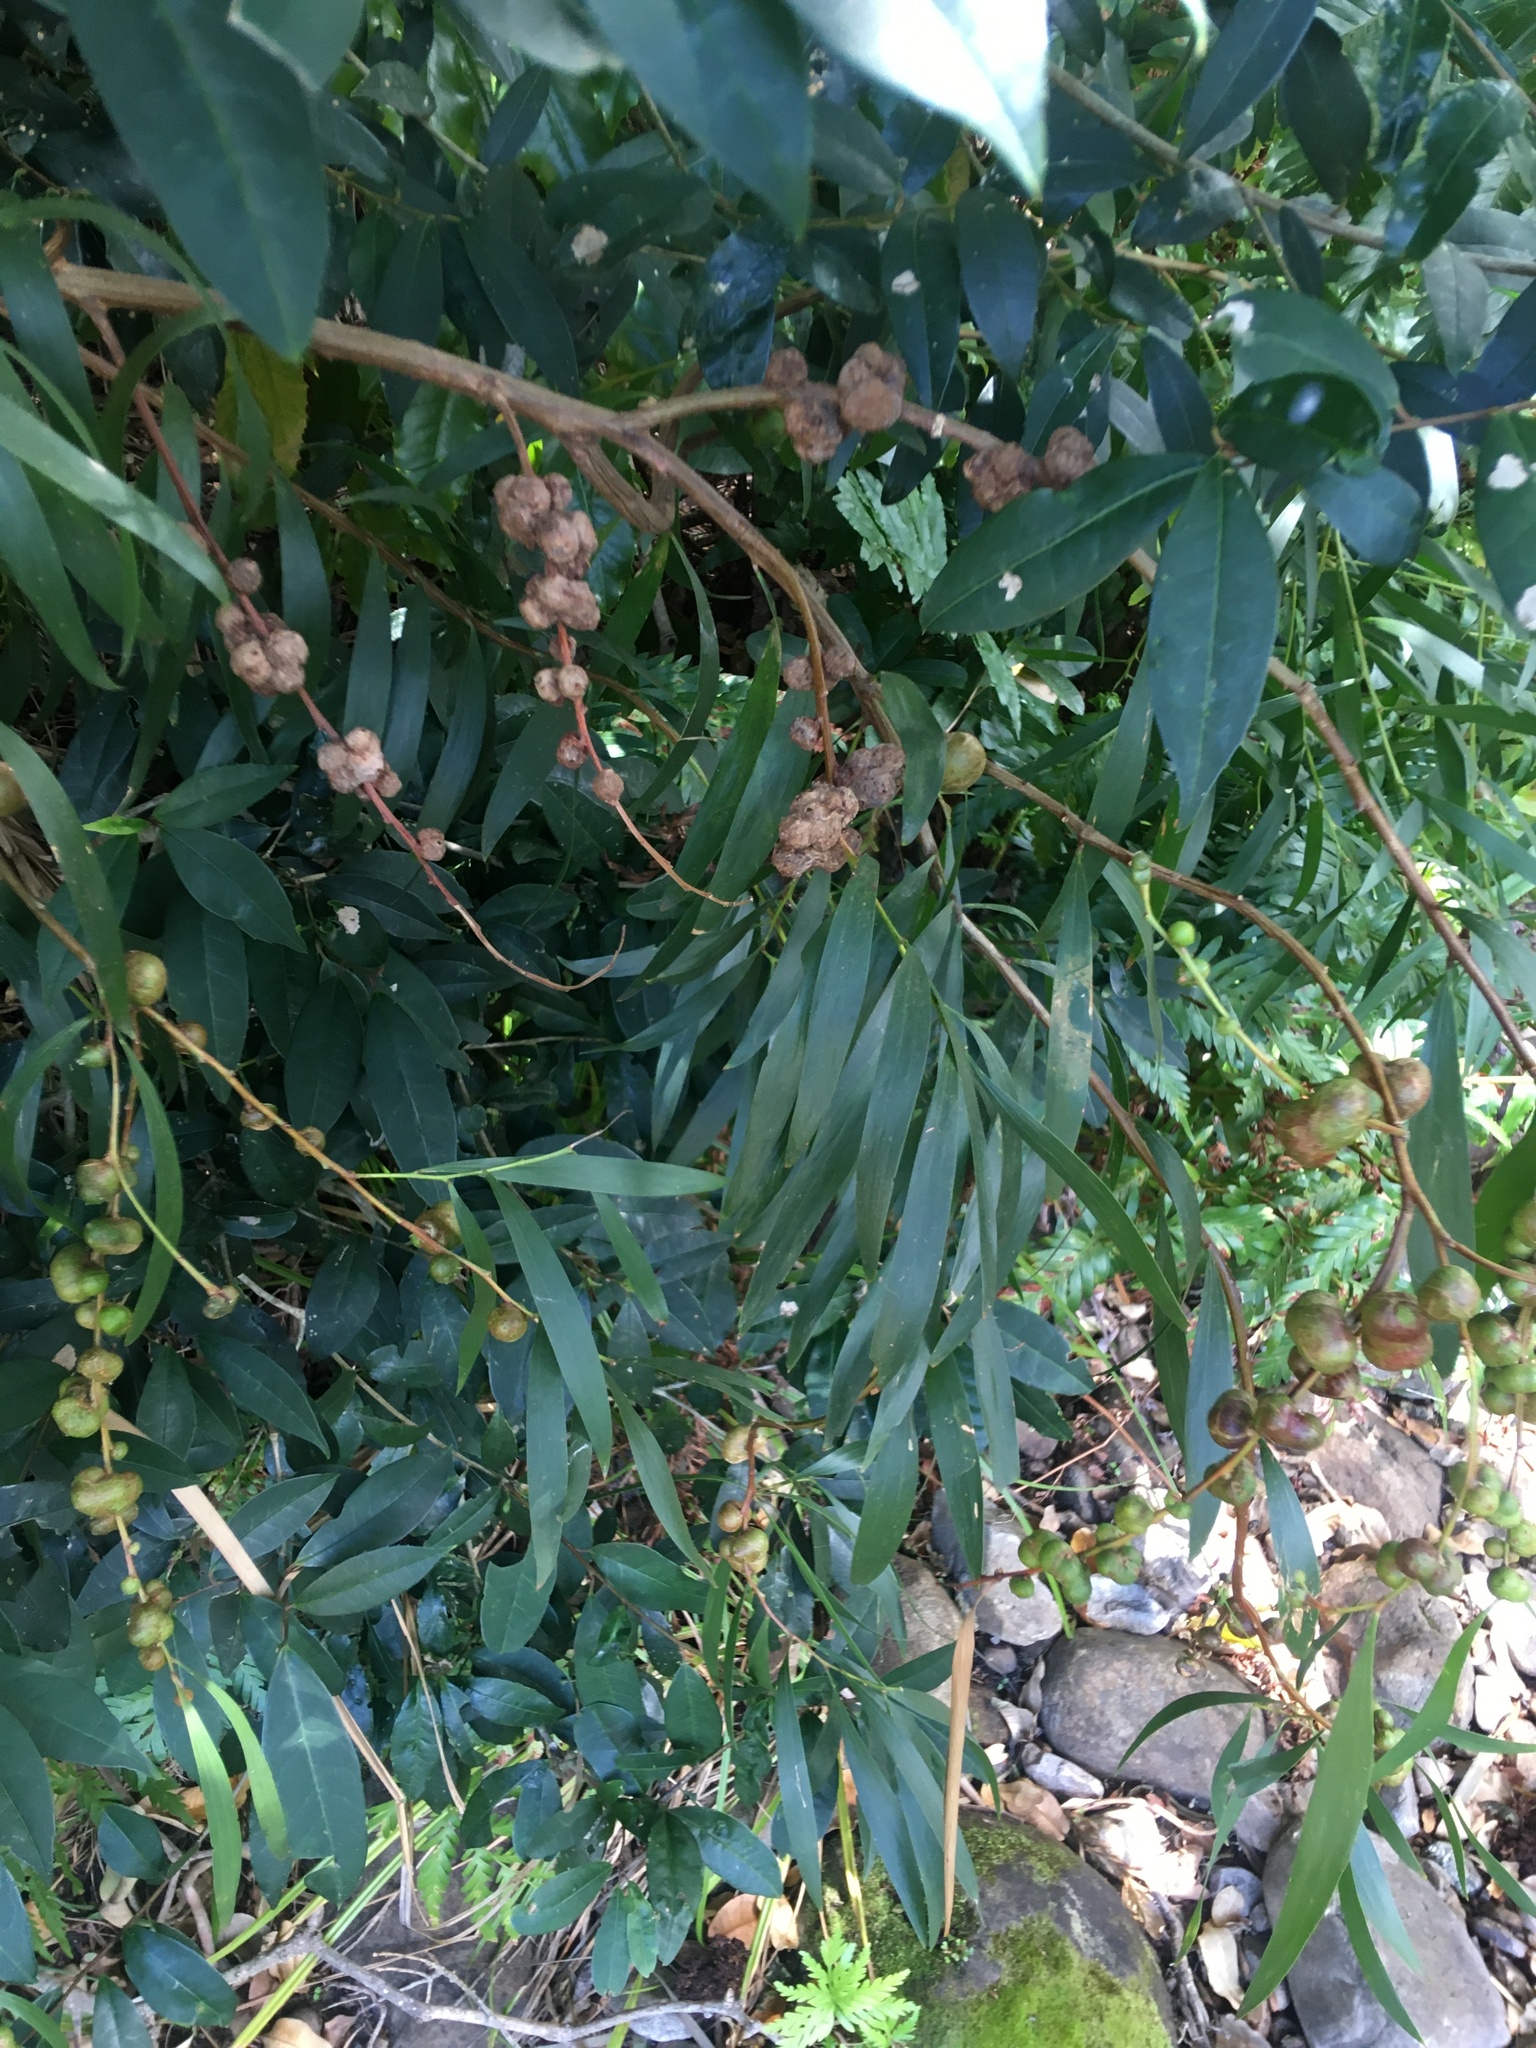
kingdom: Plantae
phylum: Tracheophyta
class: Magnoliopsida
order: Fabales
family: Fabaceae
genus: Acacia
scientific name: Acacia longifolia
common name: Sydney golden wattle
